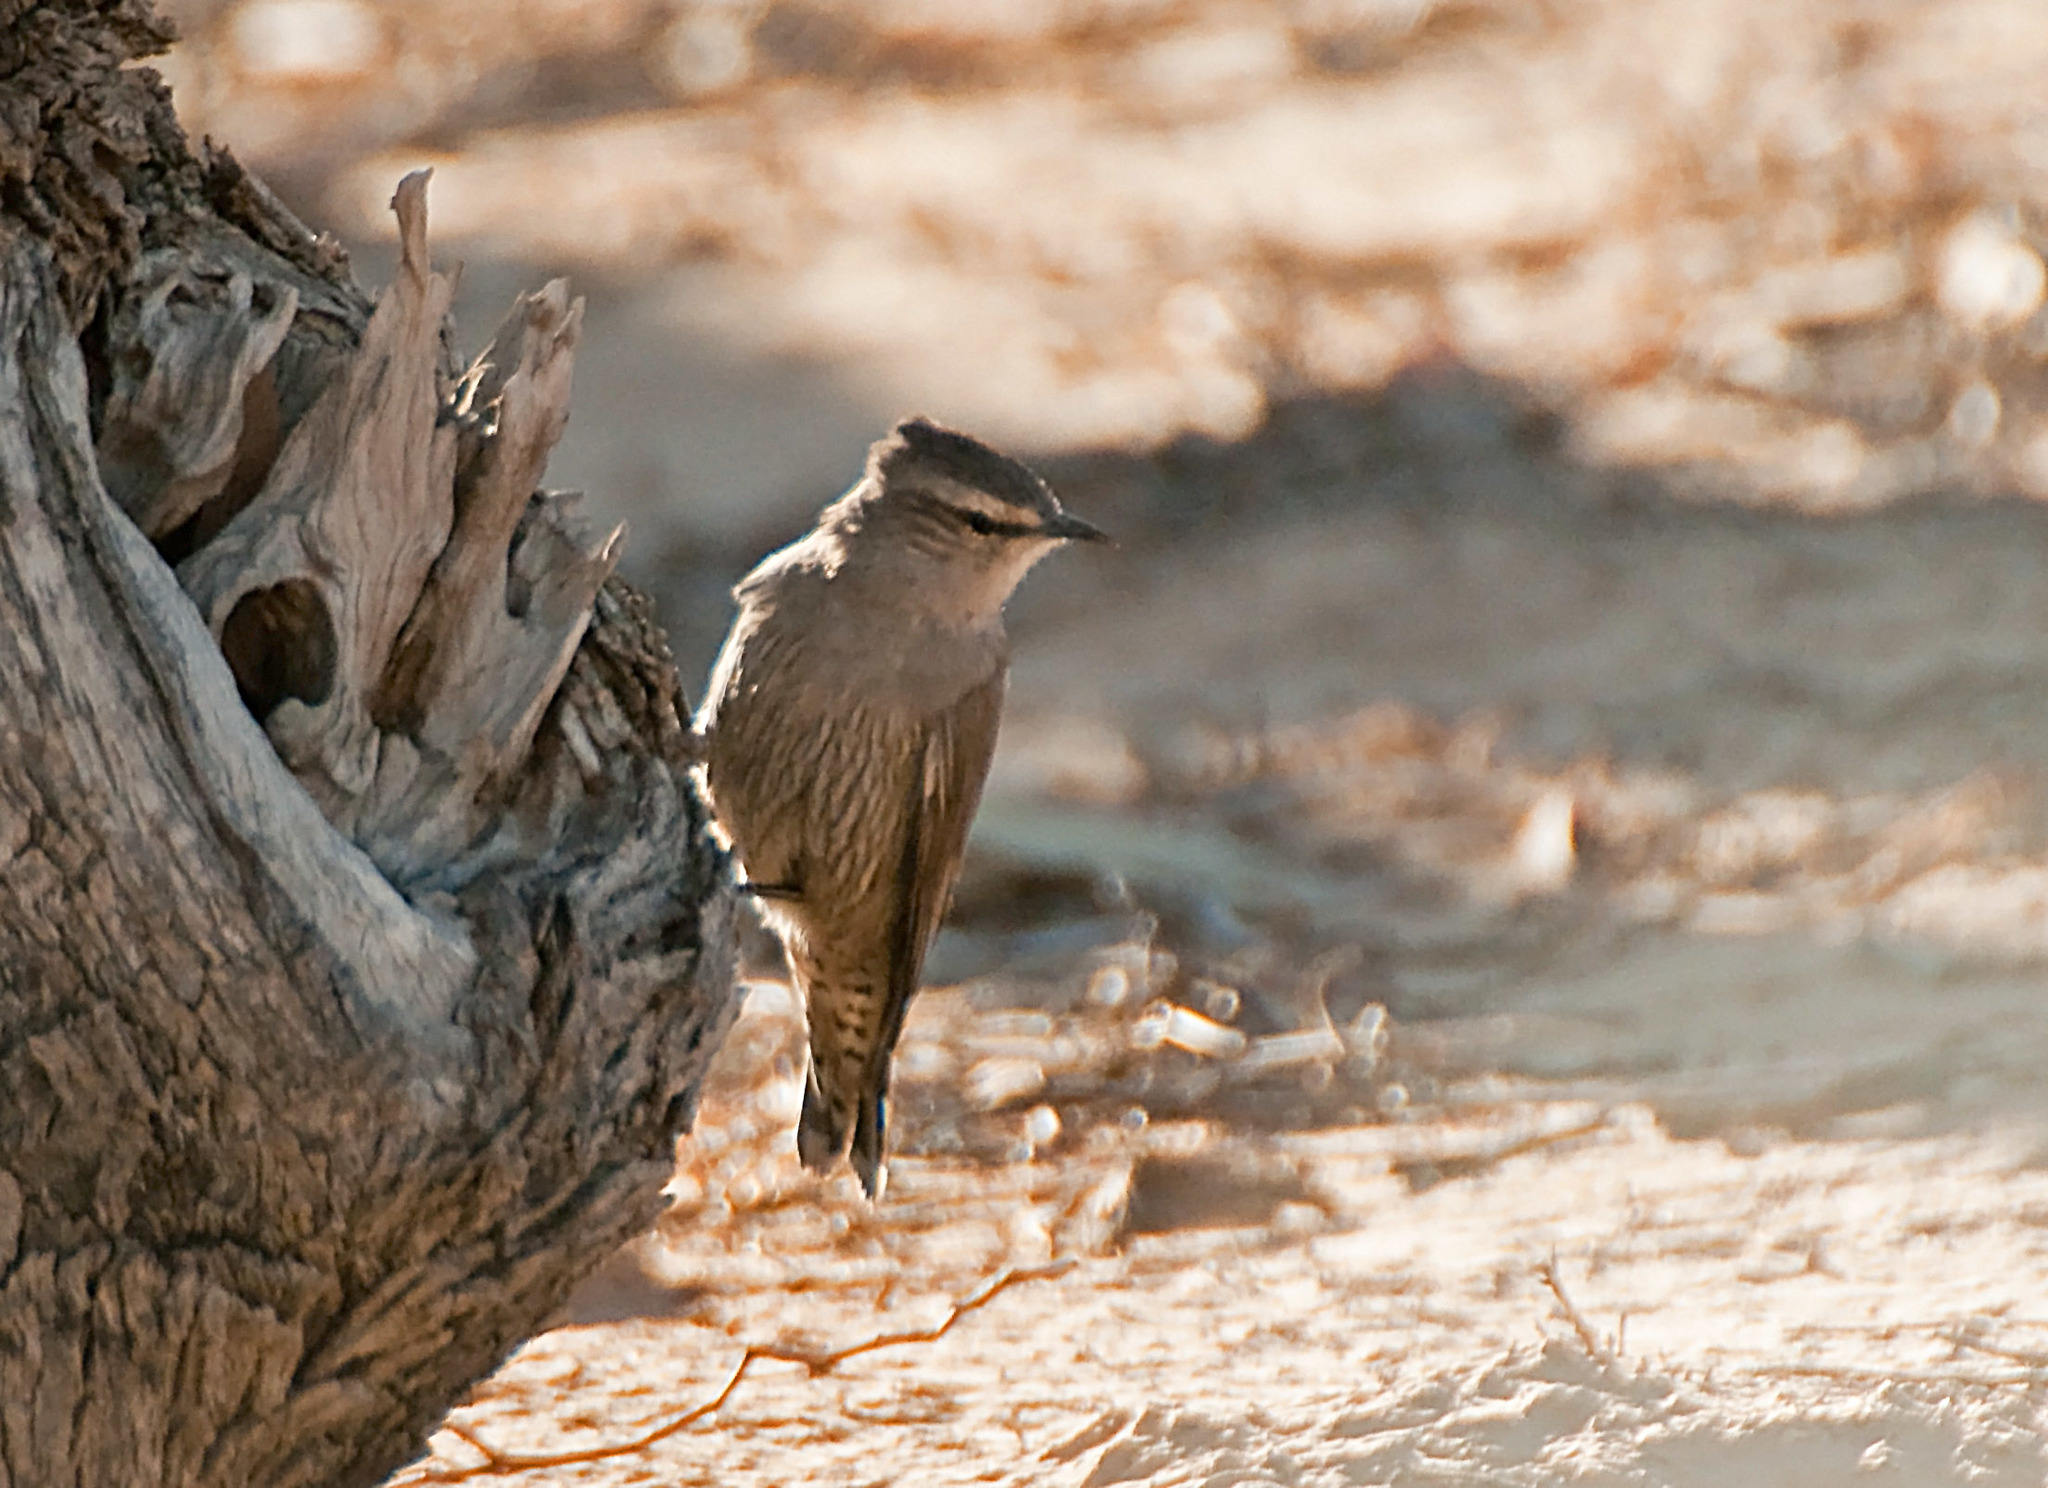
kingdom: Animalia
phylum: Chordata
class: Aves
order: Passeriformes
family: Climacteridae
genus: Climacteris
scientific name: Climacteris picumnus
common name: Brown treecreeper
